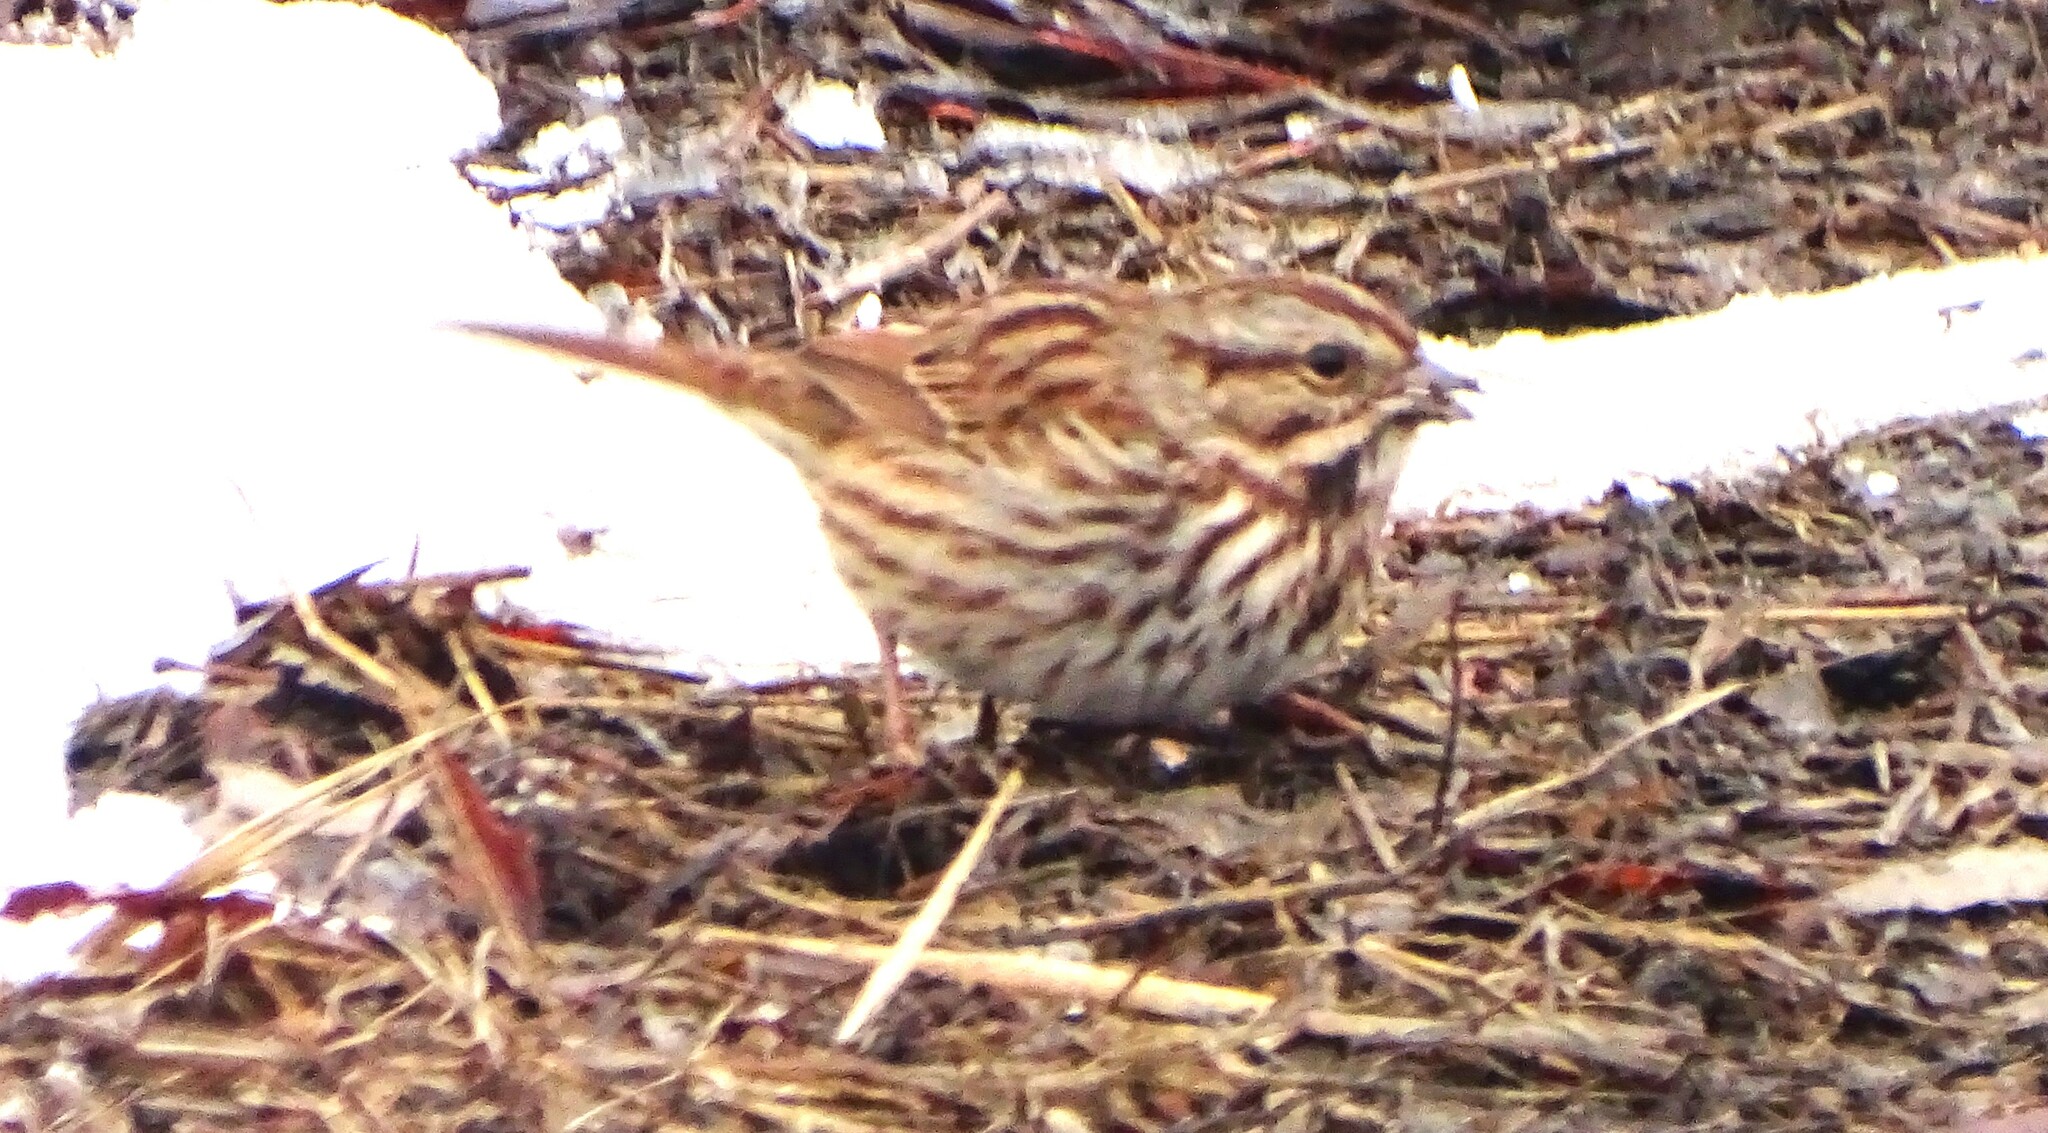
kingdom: Animalia
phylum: Chordata
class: Aves
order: Passeriformes
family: Passerellidae
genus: Melospiza
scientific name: Melospiza melodia
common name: Song sparrow
